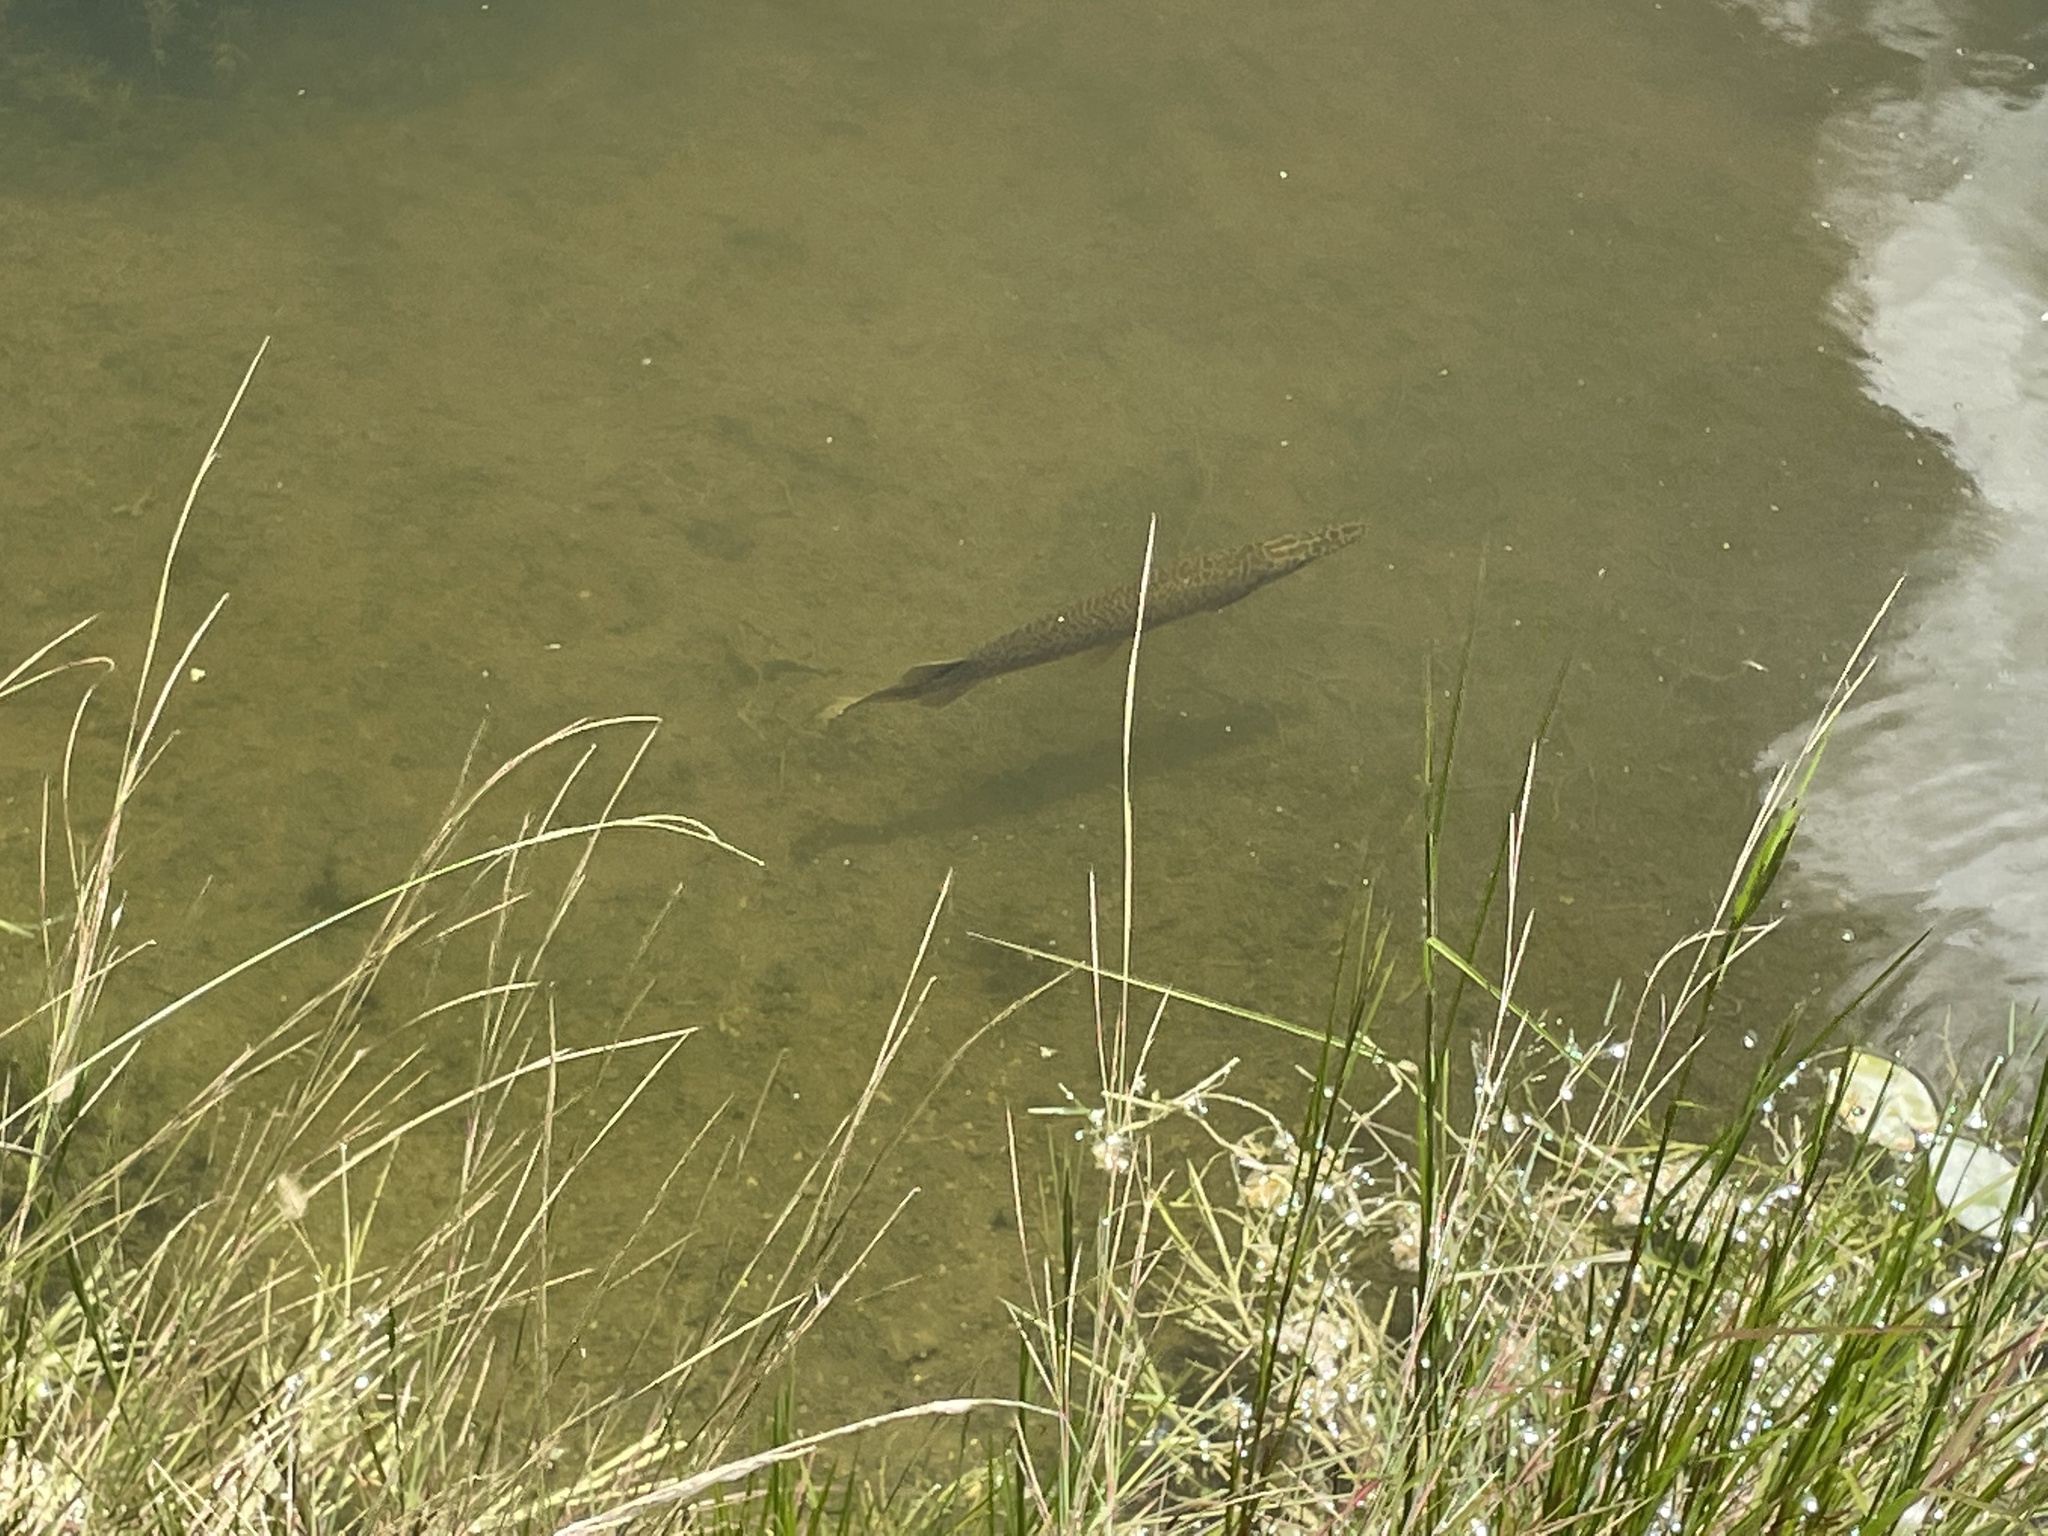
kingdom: Animalia
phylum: Chordata
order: Lepisosteiformes
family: Lepisosteidae
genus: Lepisosteus
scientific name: Lepisosteus platyrhincus
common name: Florida gar
